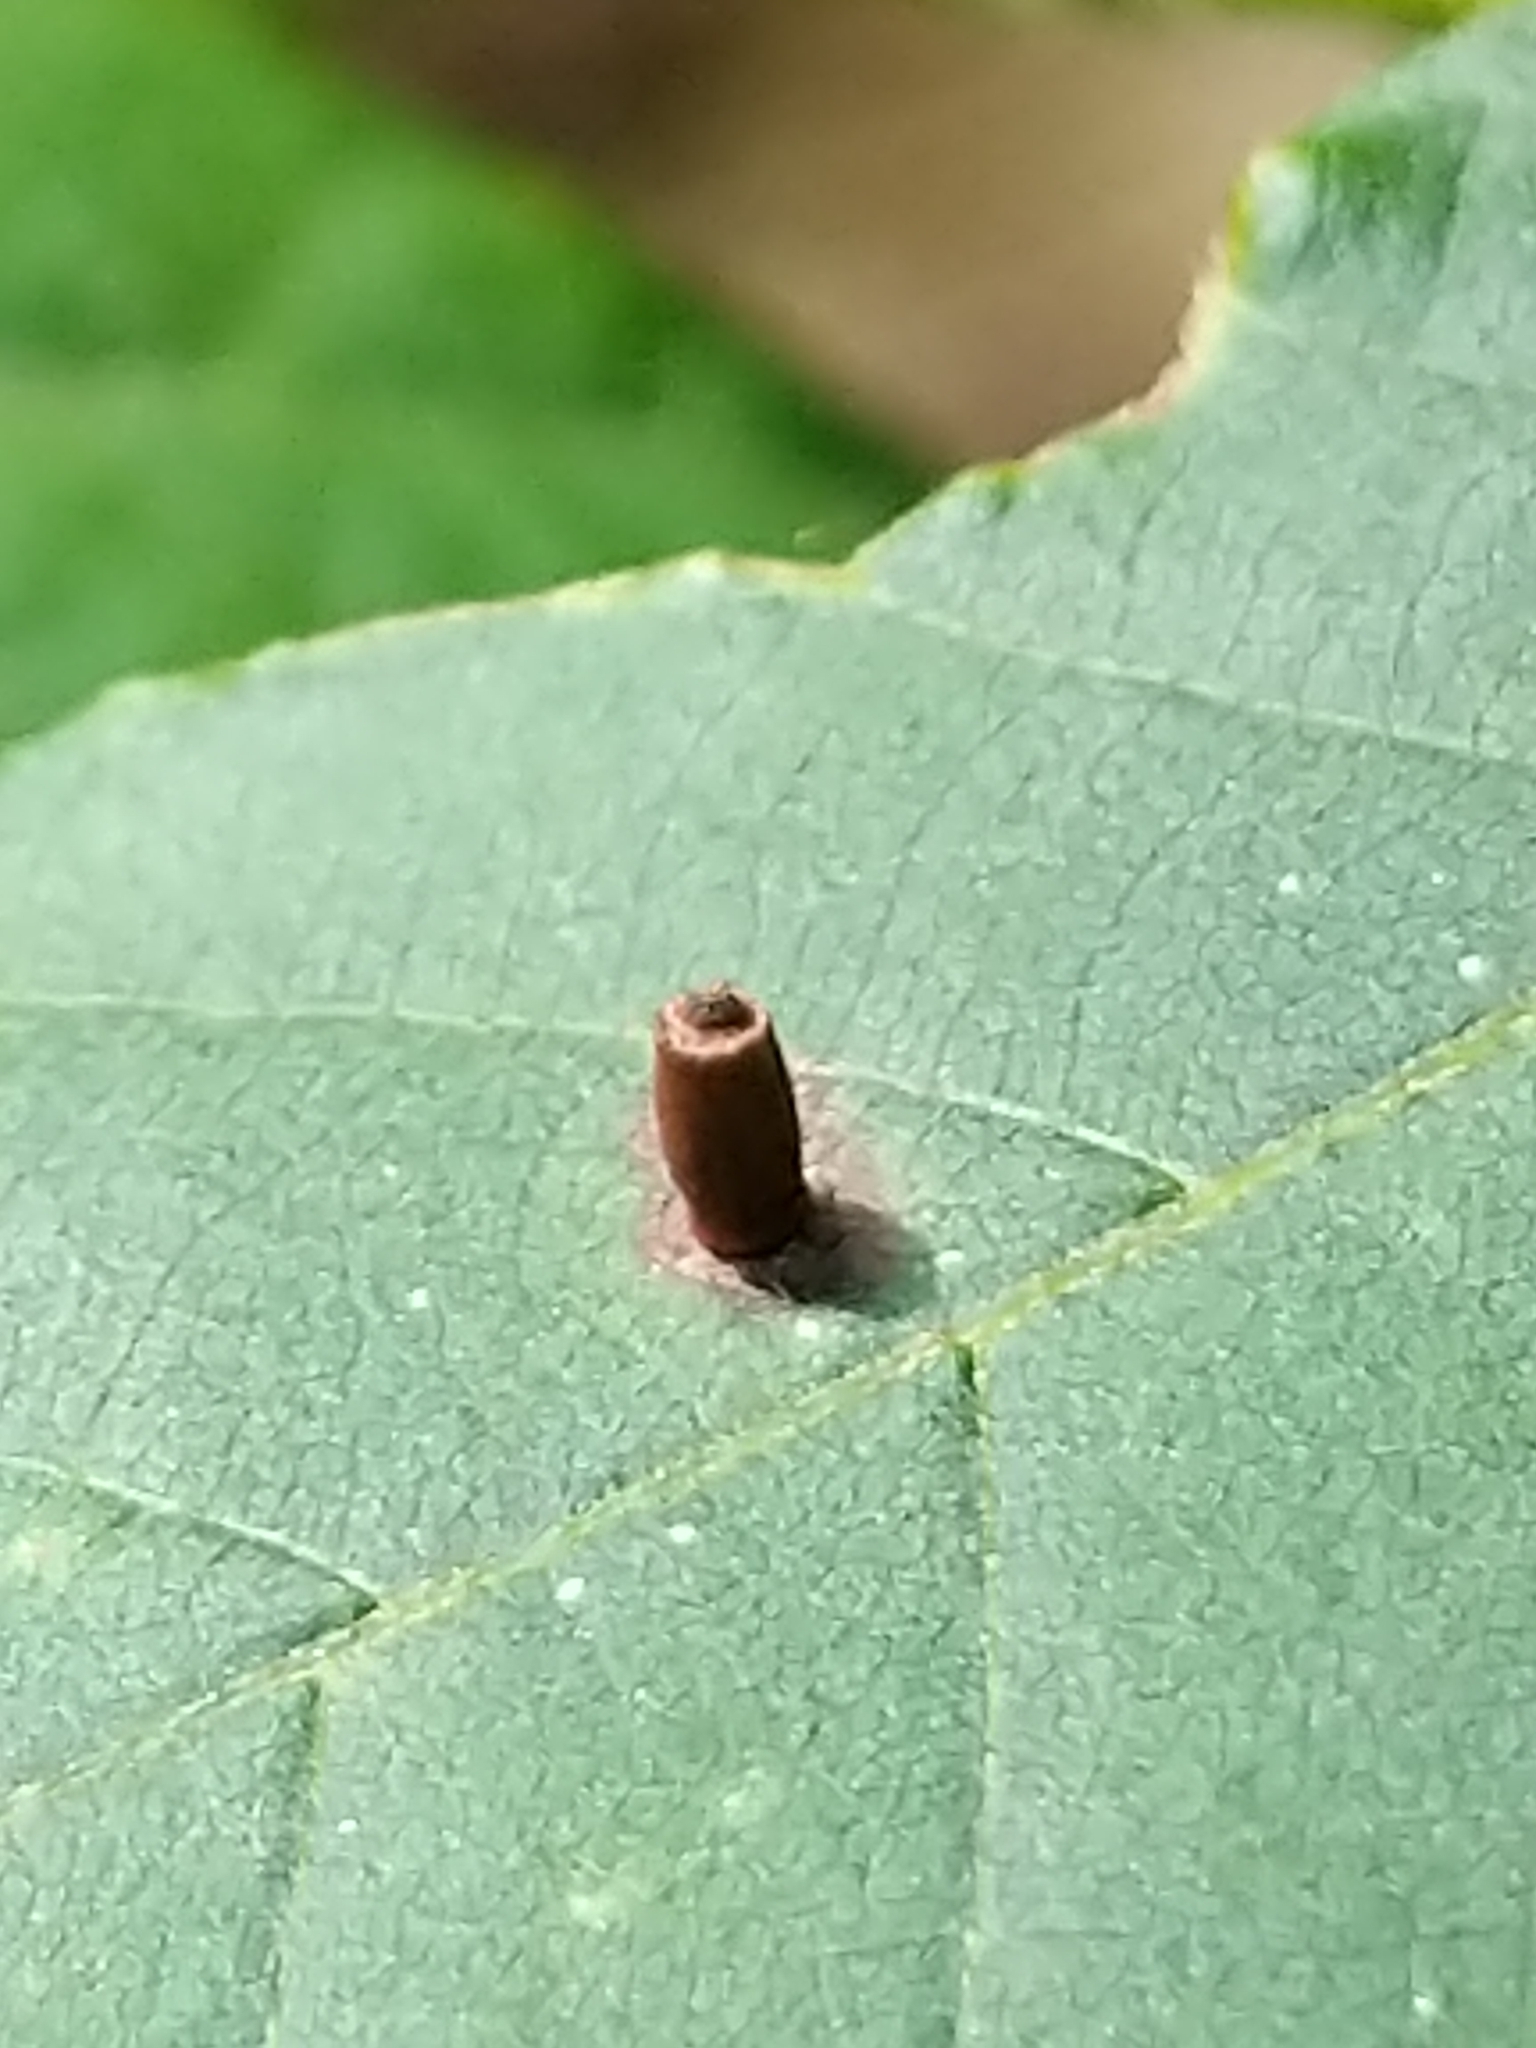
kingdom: Animalia
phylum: Arthropoda
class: Insecta
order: Diptera
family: Cecidomyiidae
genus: Caryomyia
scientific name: Caryomyia urnula
